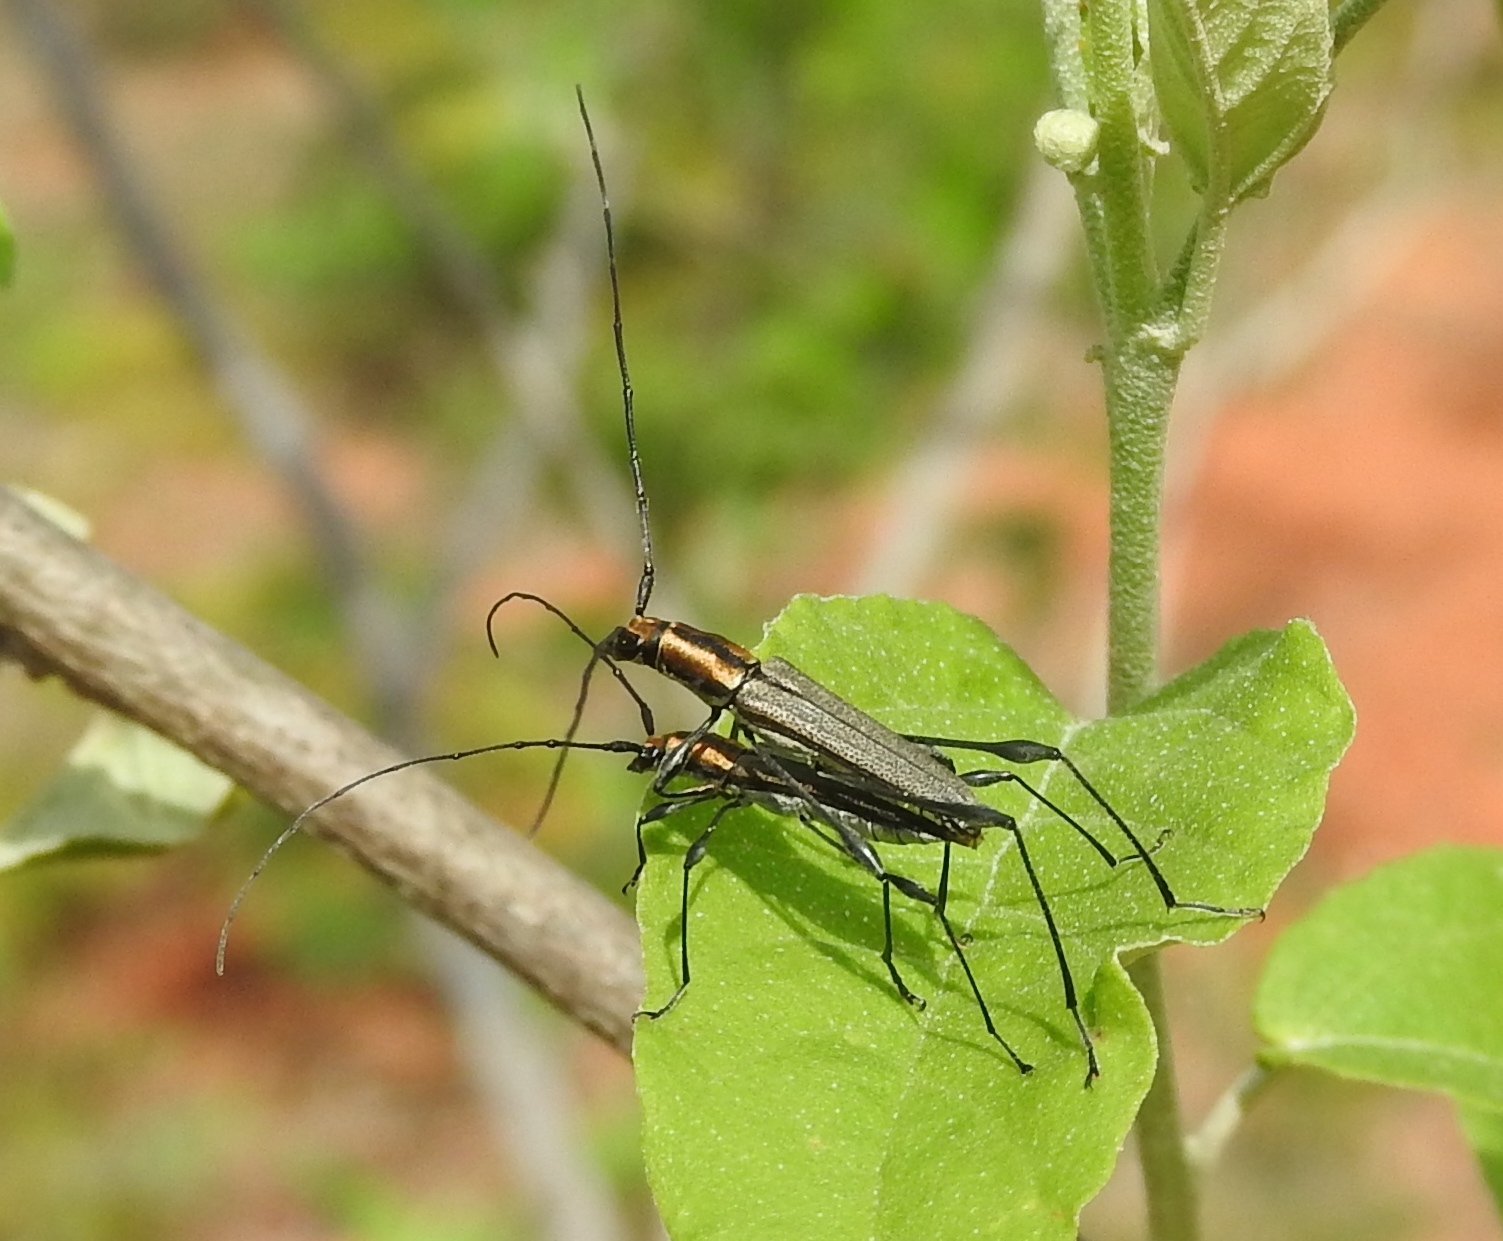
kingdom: Animalia
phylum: Arthropoda
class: Insecta
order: Coleoptera
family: Cerambycidae
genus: Rhopalophora
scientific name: Rhopalophora
